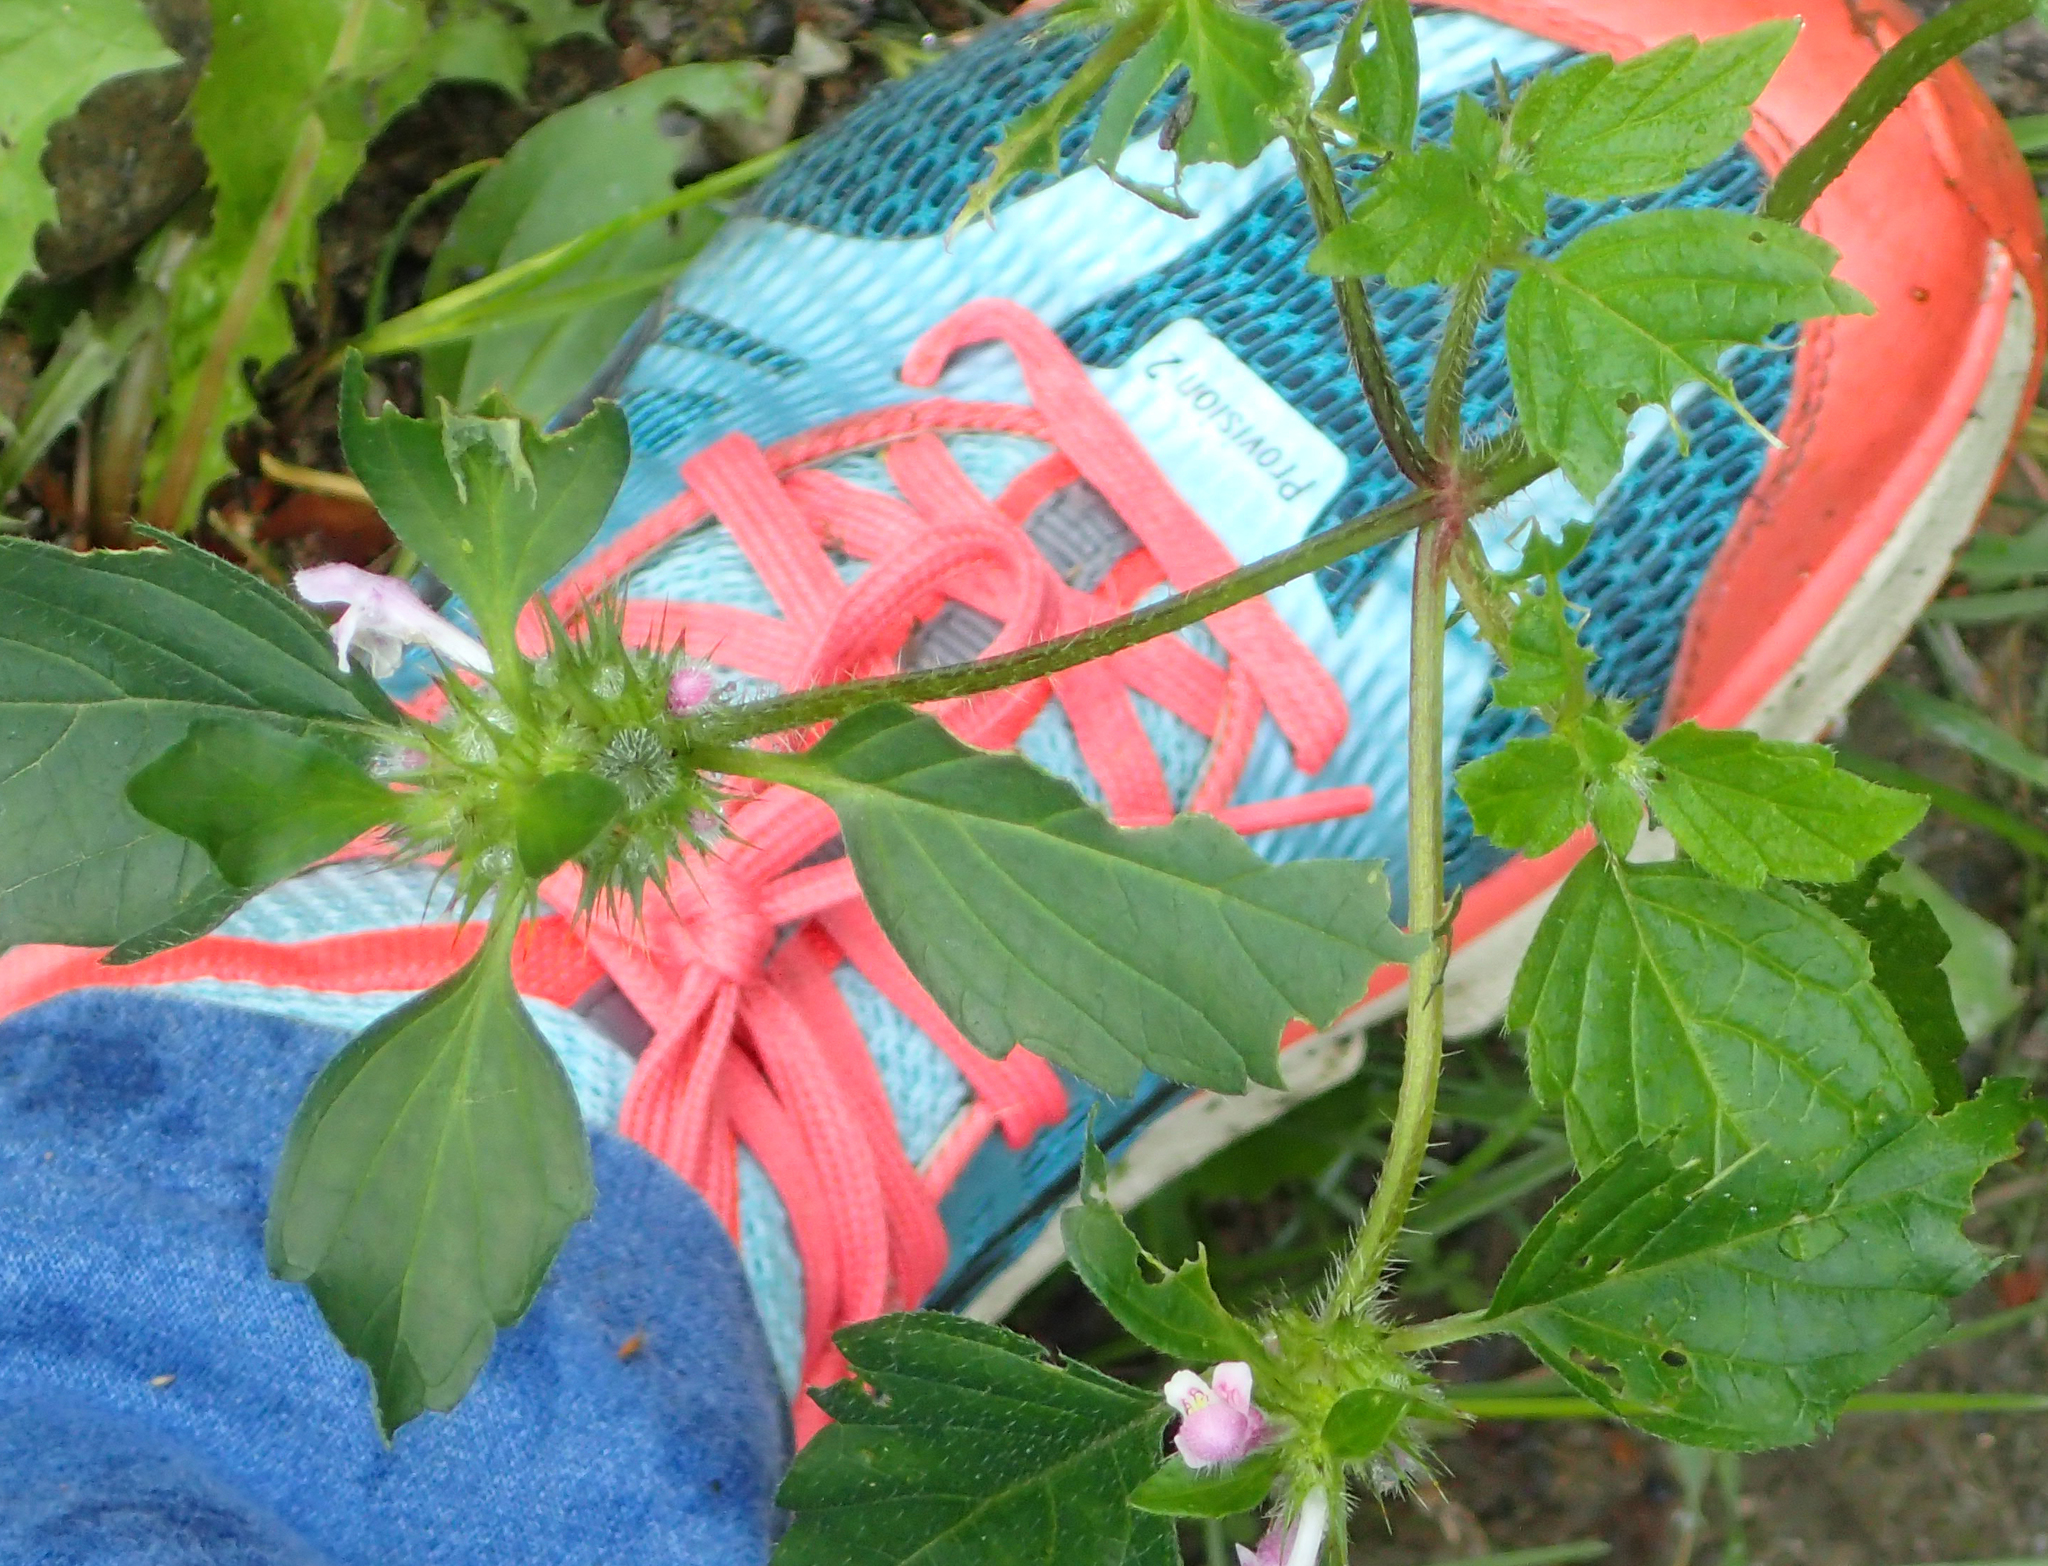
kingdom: Plantae
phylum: Tracheophyta
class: Magnoliopsida
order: Lamiales
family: Lamiaceae
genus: Galeopsis
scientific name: Galeopsis tetrahit
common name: Common hemp-nettle
